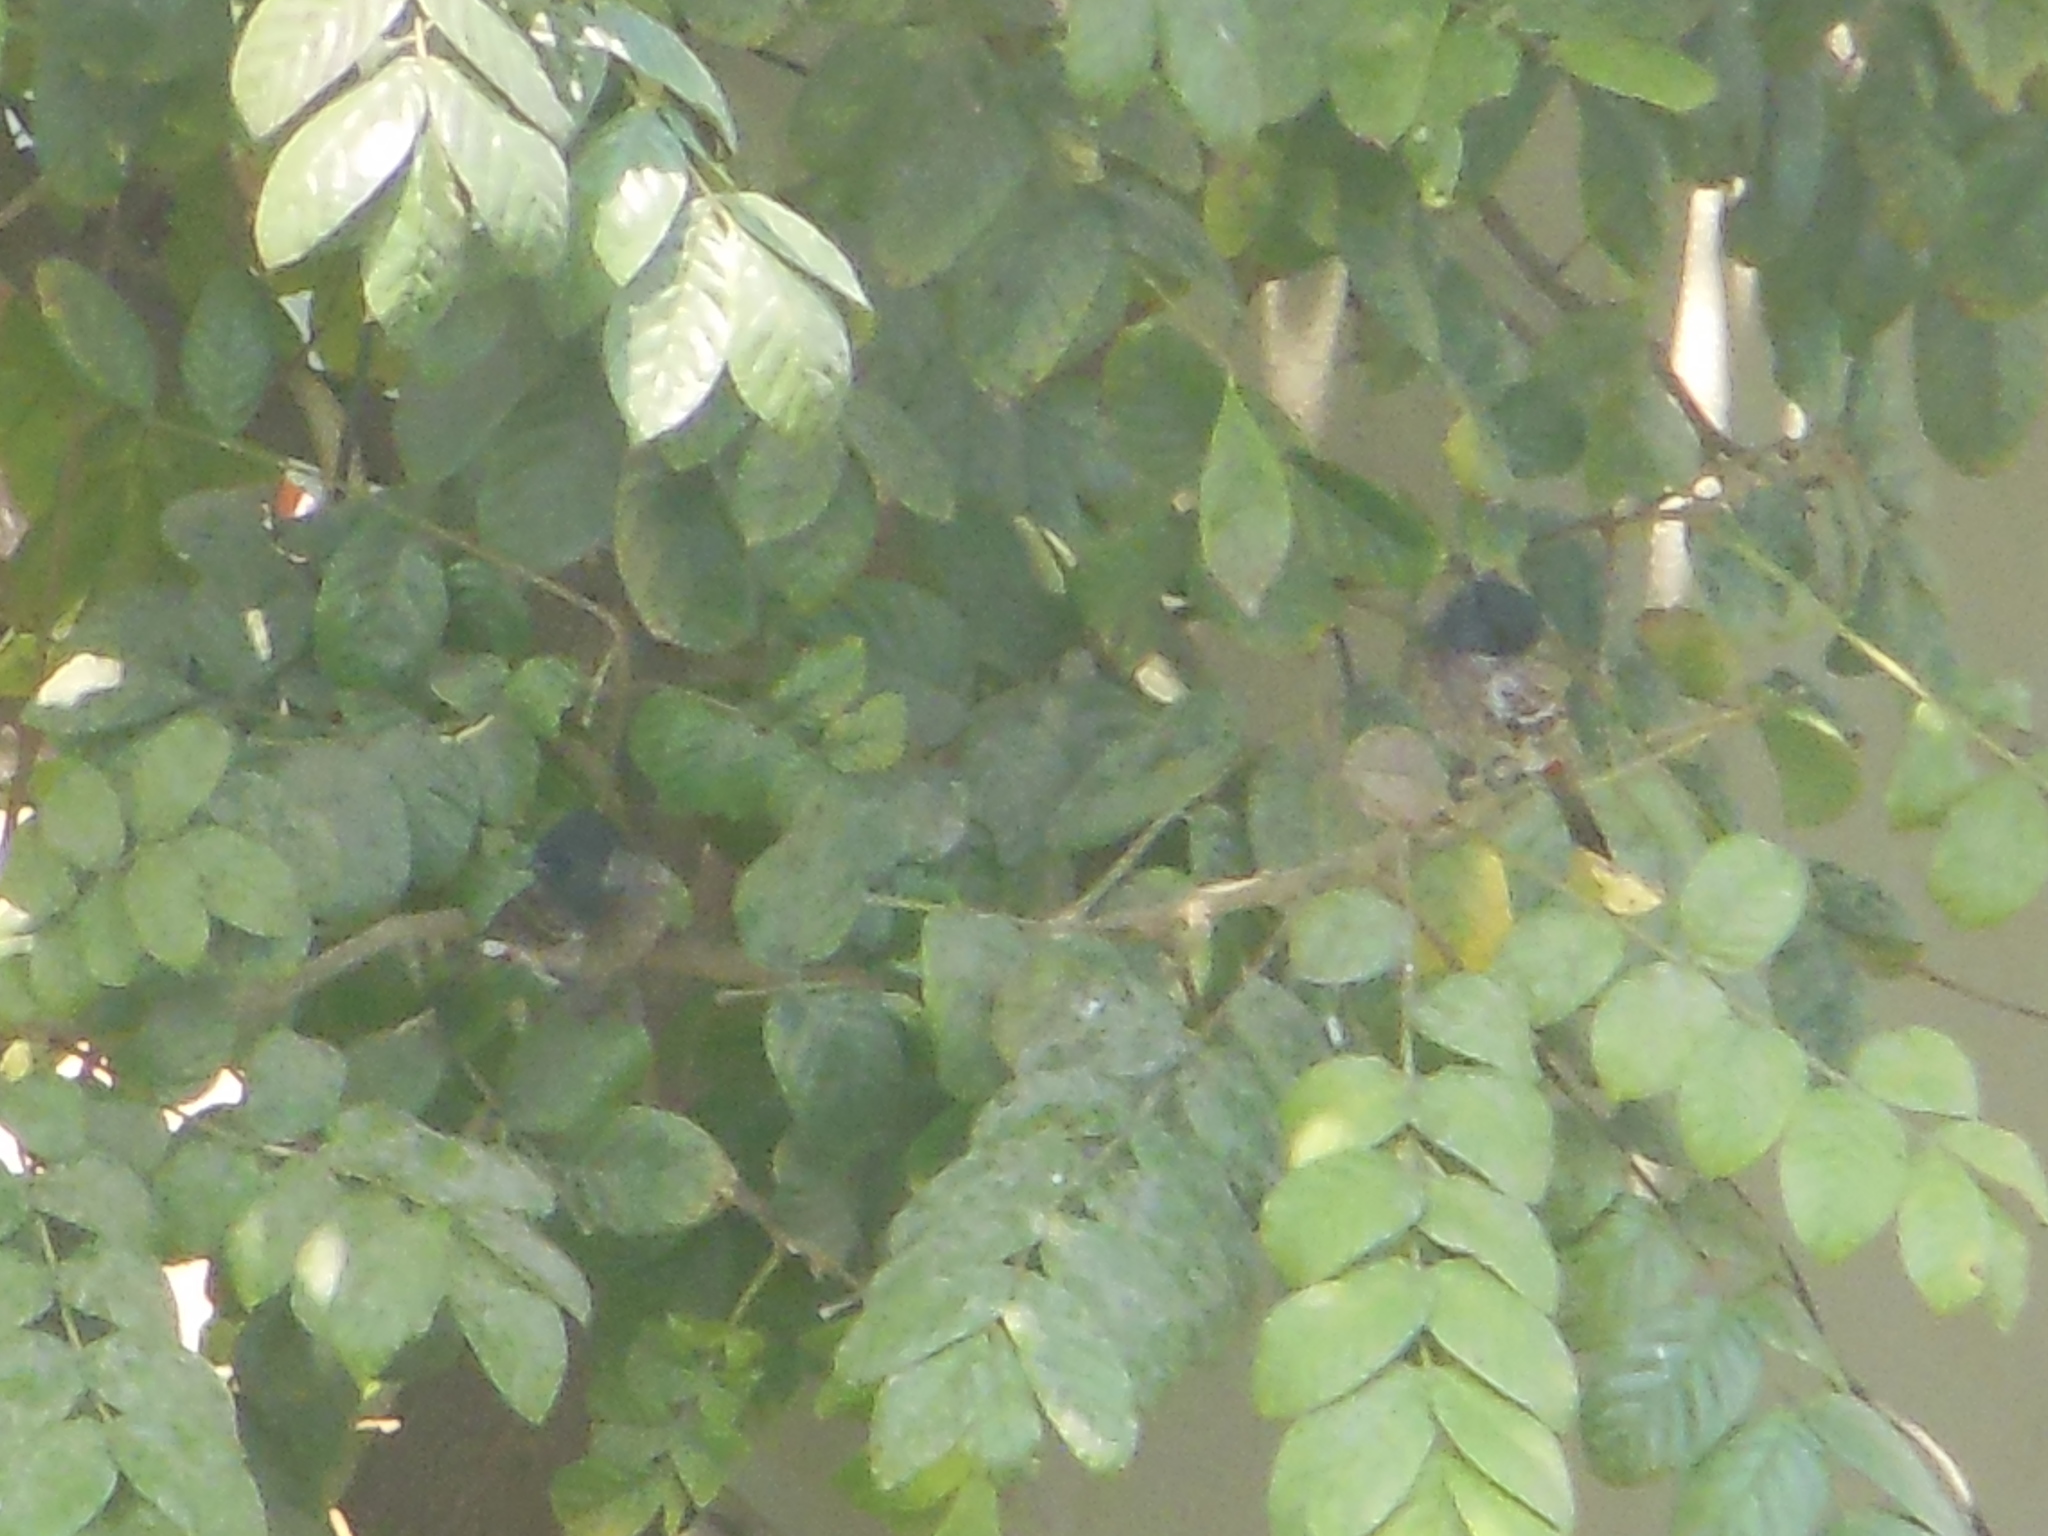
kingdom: Animalia
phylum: Chordata
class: Aves
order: Passeriformes
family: Pycnonotidae
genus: Pycnonotus
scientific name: Pycnonotus cafer
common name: Red-vented bulbul
